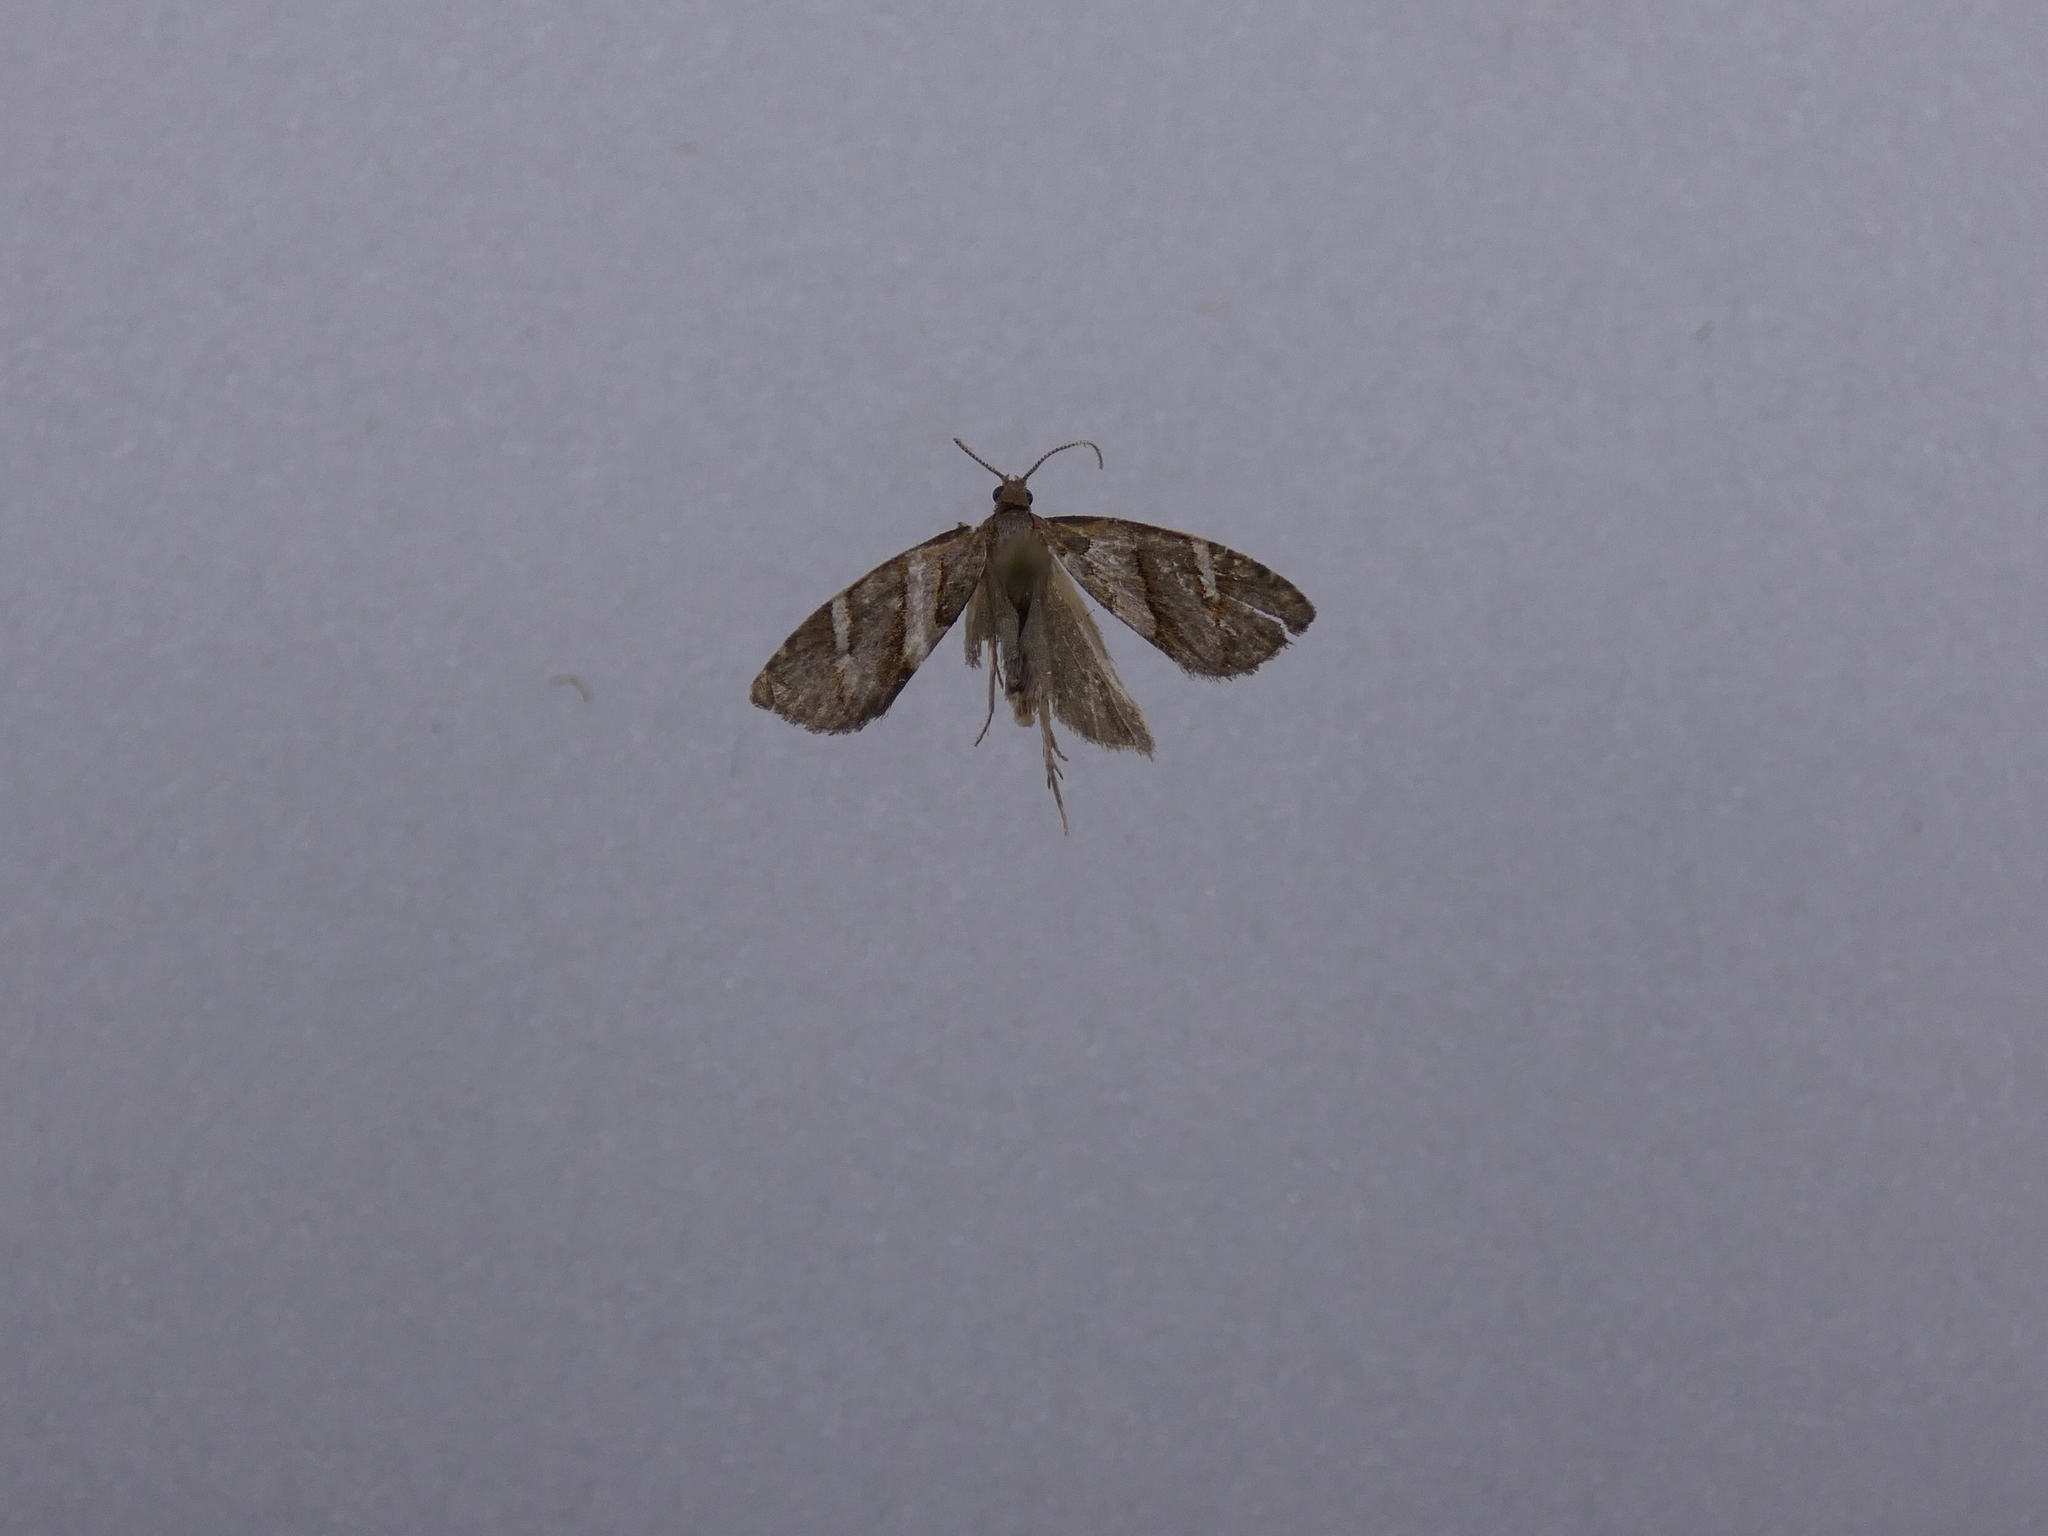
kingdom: Animalia
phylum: Arthropoda
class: Insecta
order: Lepidoptera
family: Tortricidae
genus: Ecclitica
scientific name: Ecclitica torogramma
